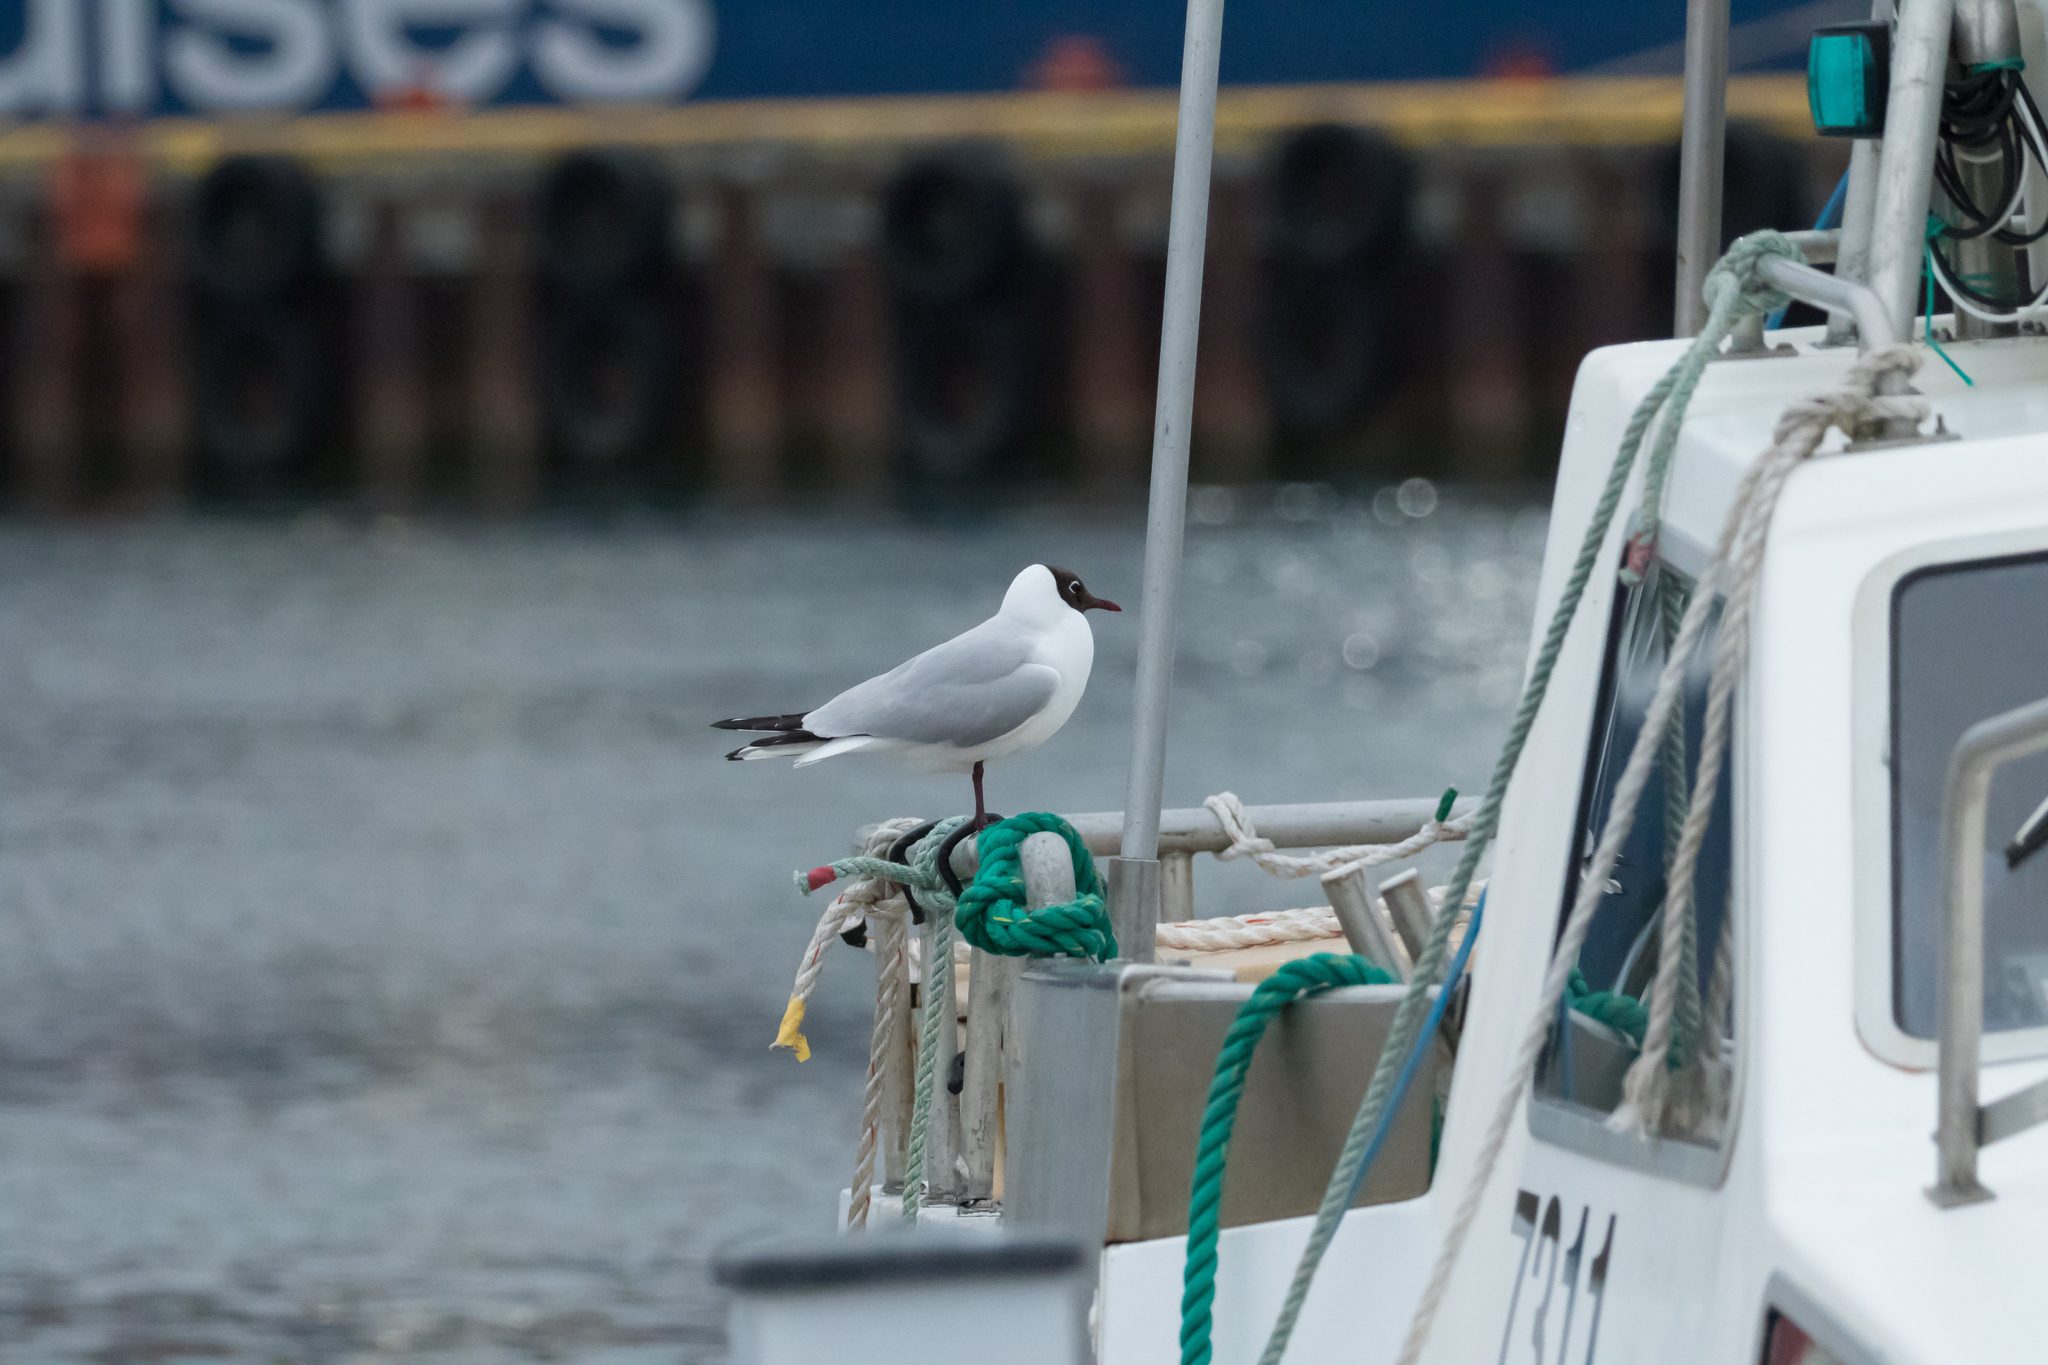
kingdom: Animalia
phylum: Chordata
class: Aves
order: Charadriiformes
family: Laridae
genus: Chroicocephalus
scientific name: Chroicocephalus ridibundus
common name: Black-headed gull
